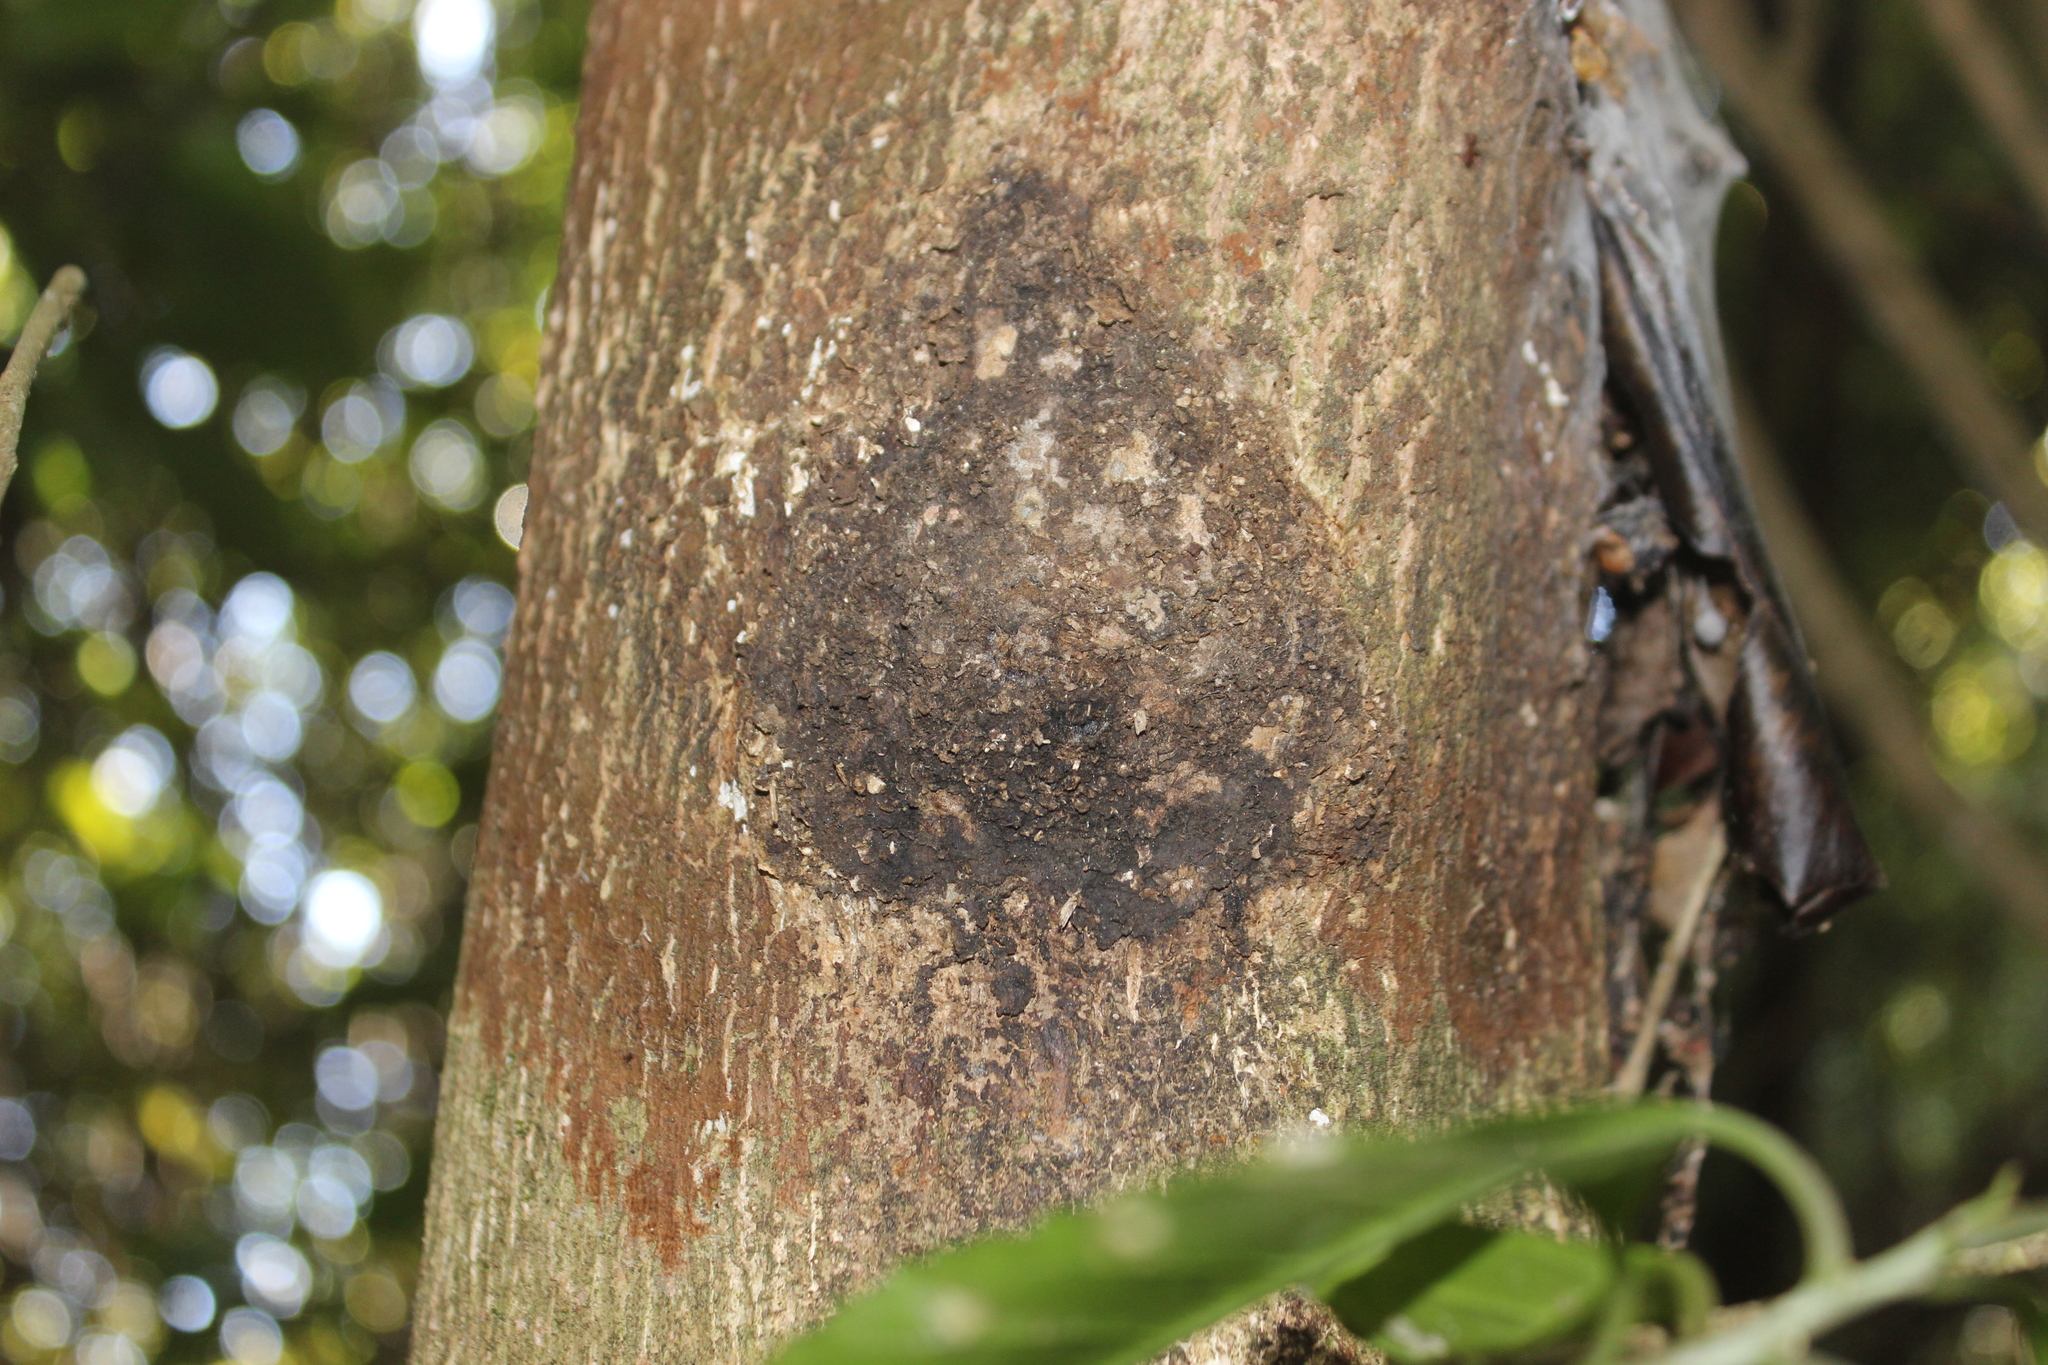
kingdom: Animalia
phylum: Arthropoda
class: Insecta
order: Lepidoptera
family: Hepialidae
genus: Aenetus
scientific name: Aenetus virescens
